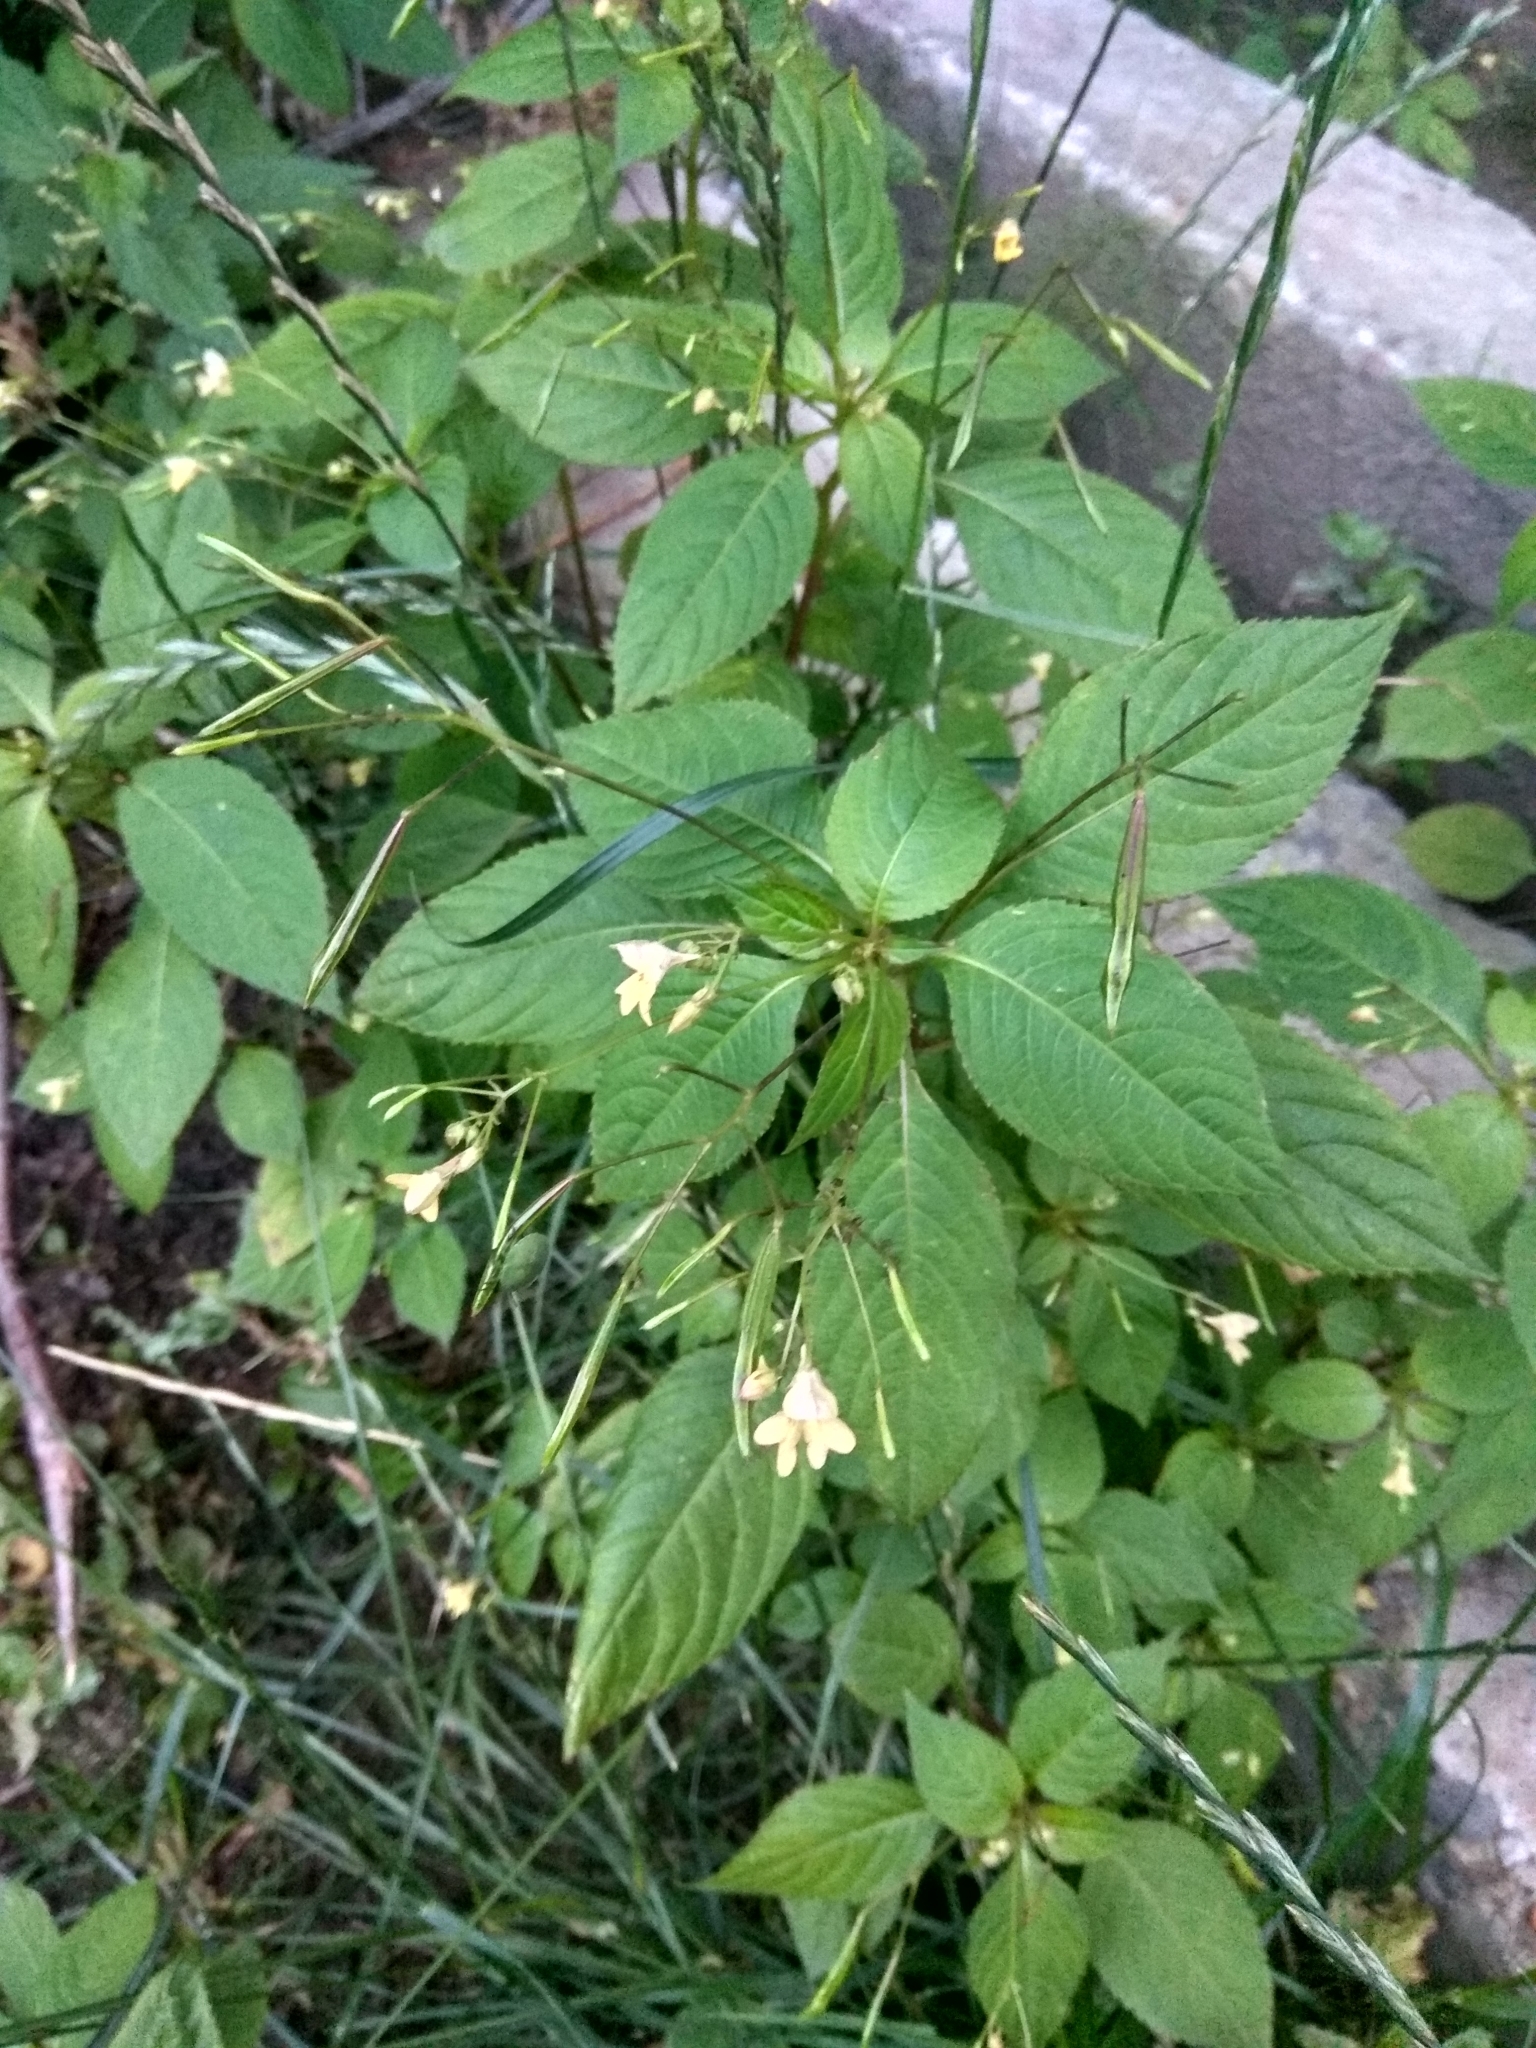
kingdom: Plantae
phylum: Tracheophyta
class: Magnoliopsida
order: Ericales
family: Balsaminaceae
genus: Impatiens
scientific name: Impatiens parviflora
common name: Small balsam
